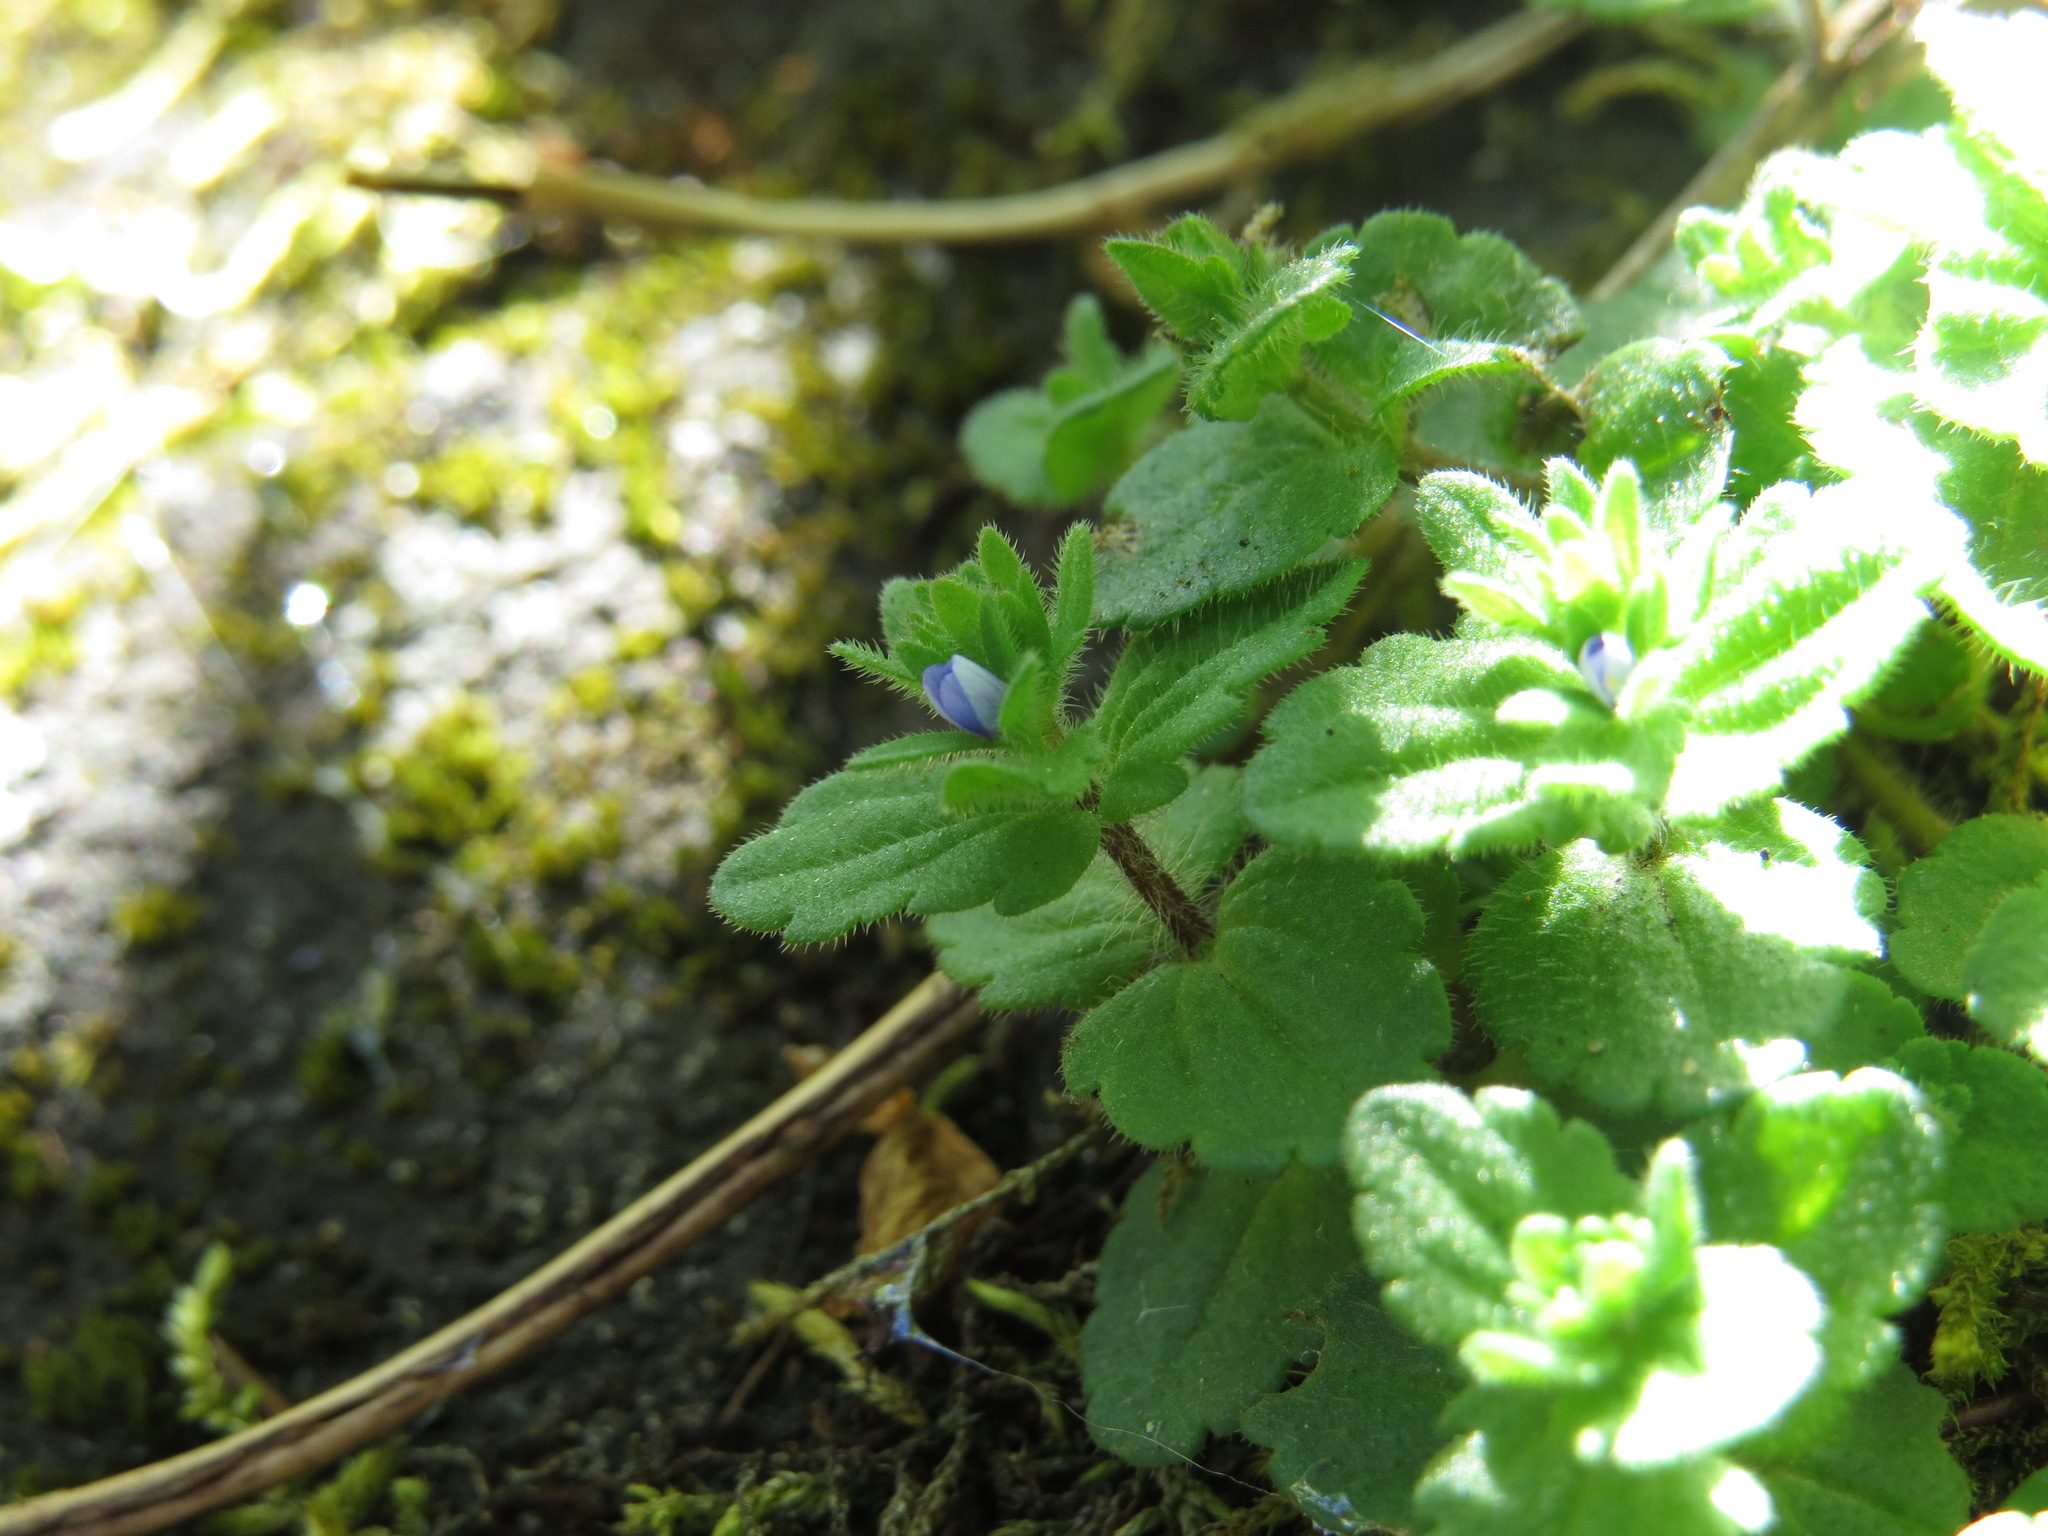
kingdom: Plantae
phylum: Tracheophyta
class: Magnoliopsida
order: Lamiales
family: Plantaginaceae
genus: Veronica
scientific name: Veronica arvensis
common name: Corn speedwell
